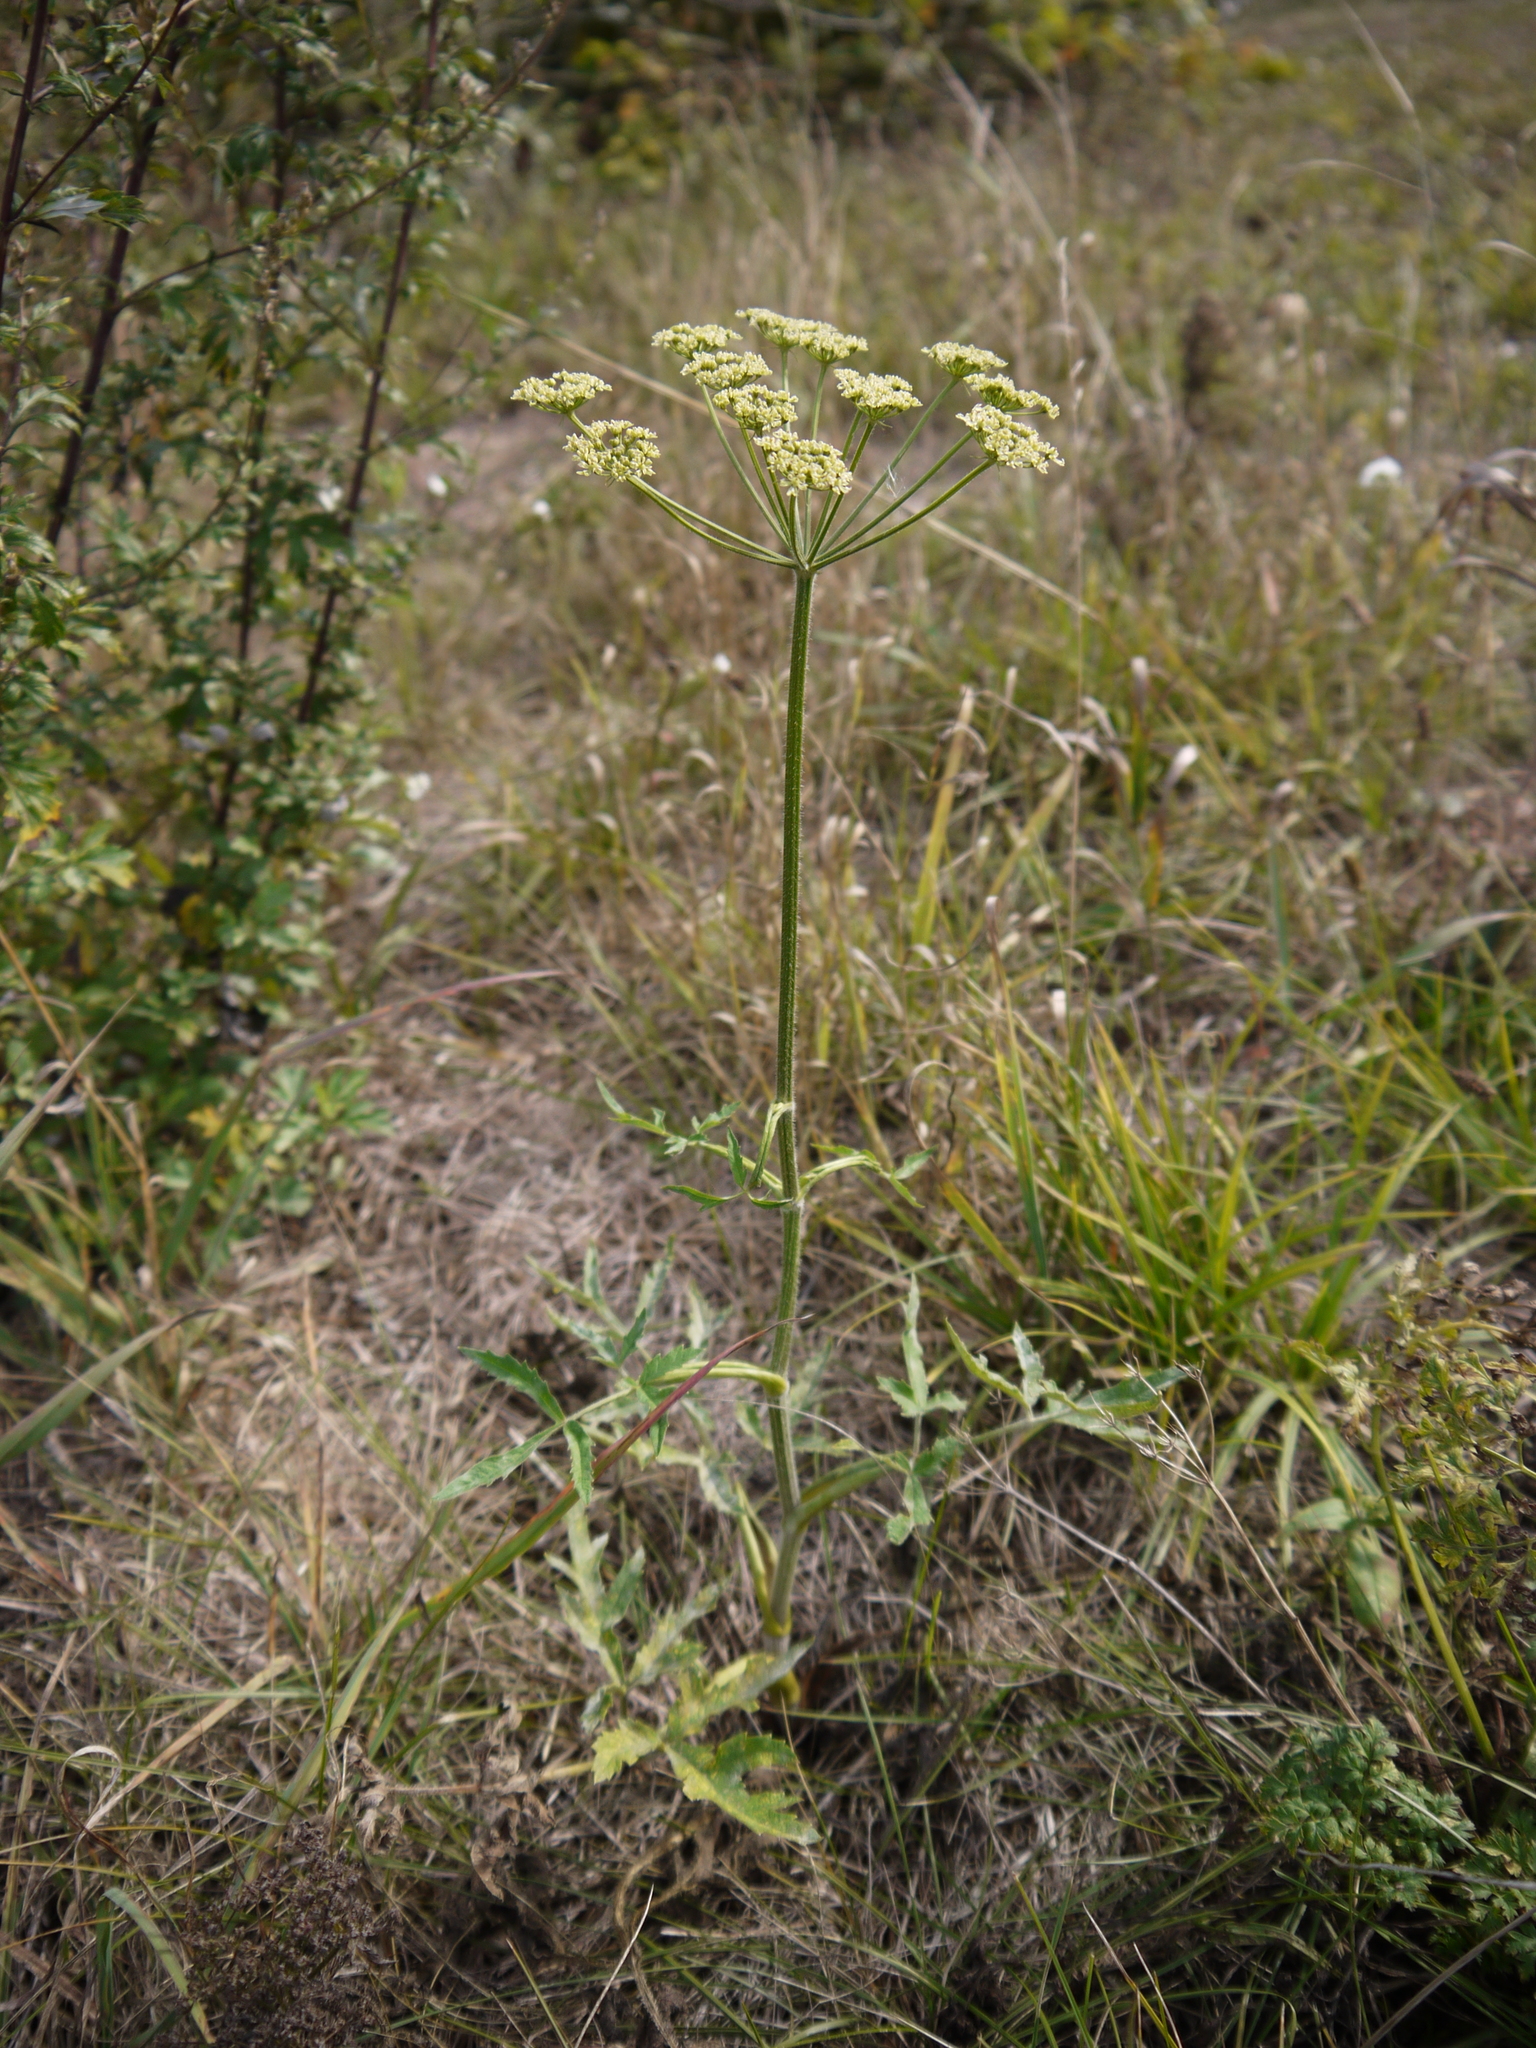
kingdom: Plantae
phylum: Tracheophyta
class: Magnoliopsida
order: Apiales
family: Apiaceae
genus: Heracleum
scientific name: Heracleum sphondylium
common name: Hogweed
